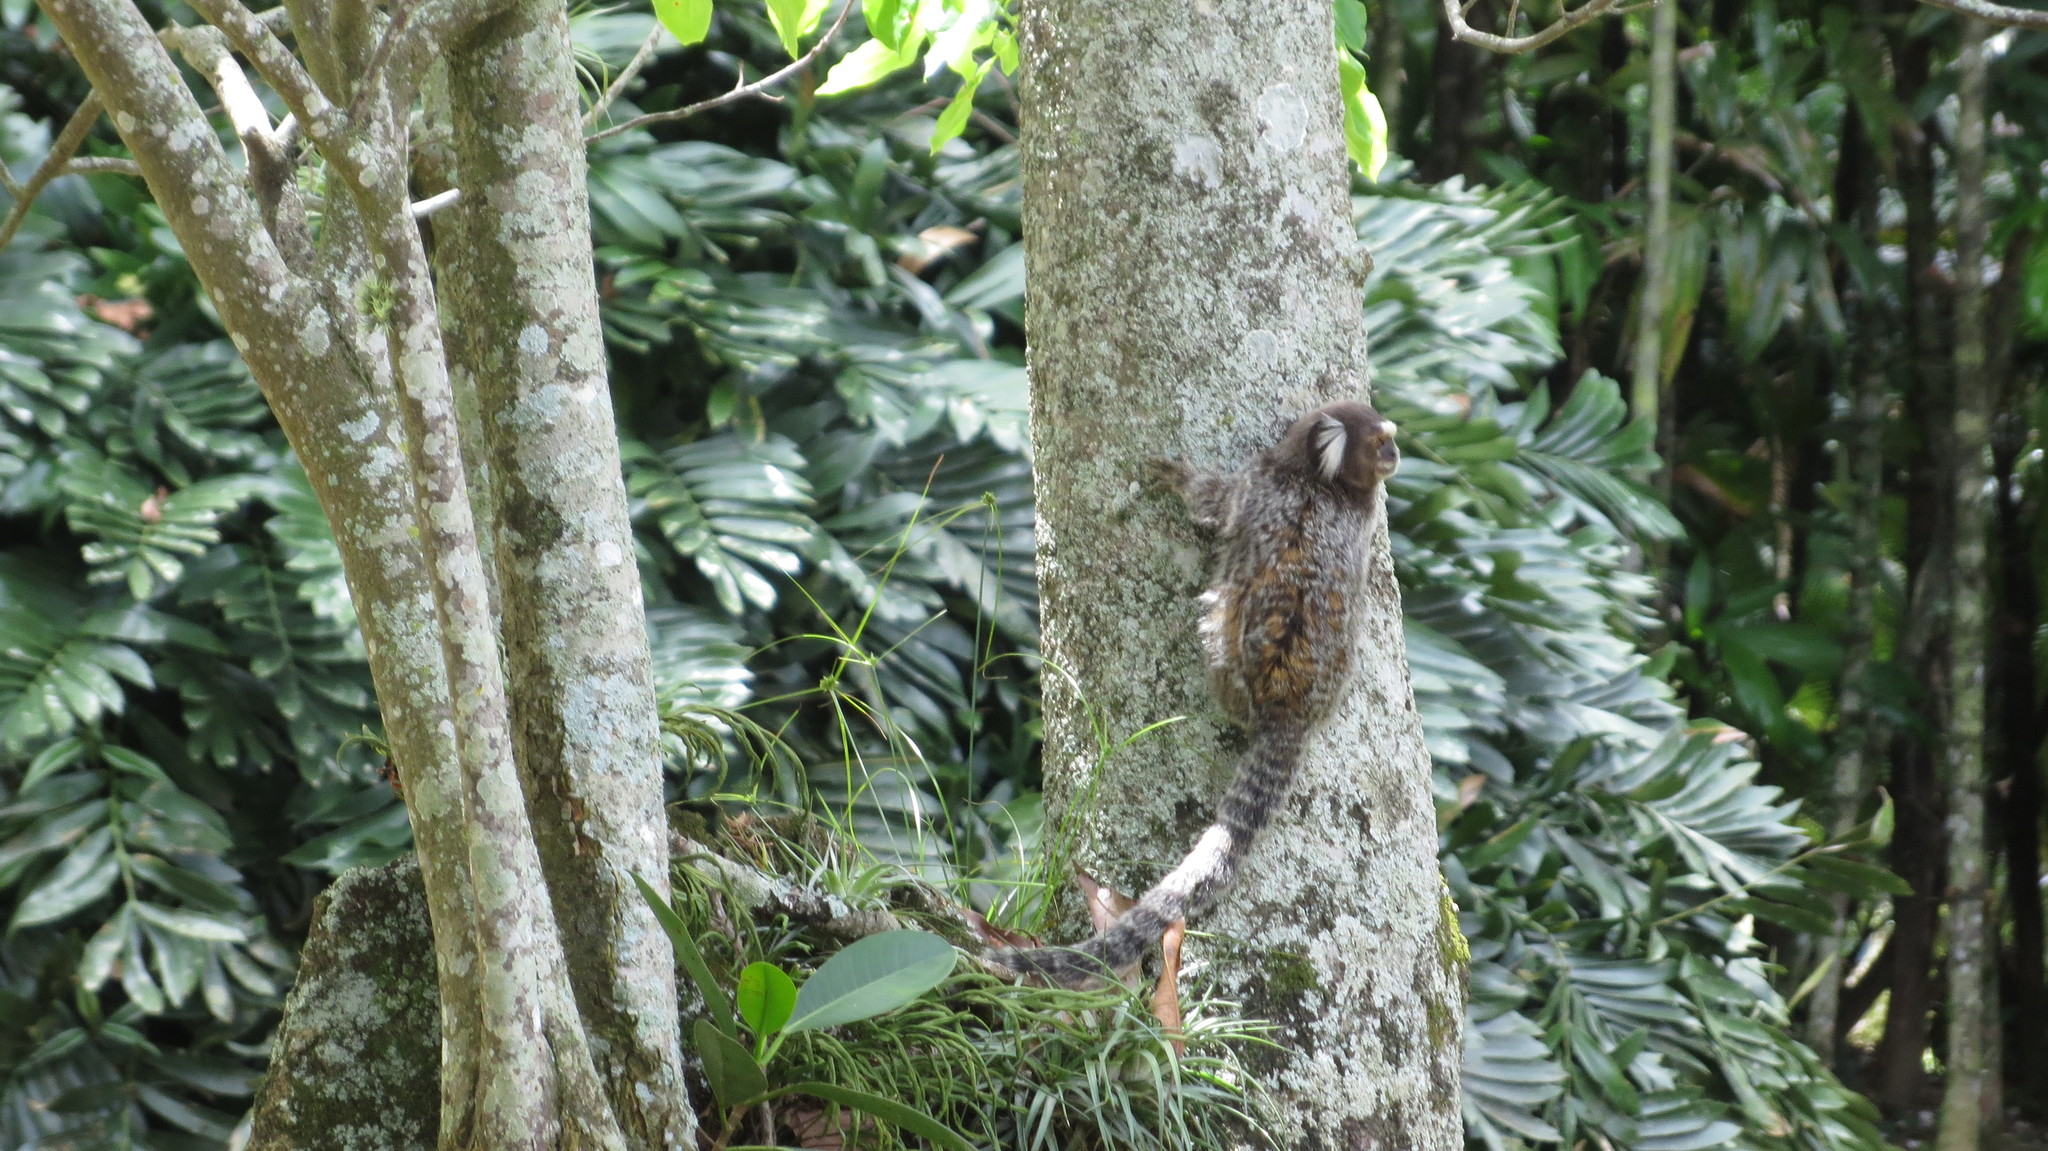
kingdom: Animalia
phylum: Chordata
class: Mammalia
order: Primates
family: Callitrichidae
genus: Callithrix
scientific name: Callithrix jacchus
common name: Common marmoset
